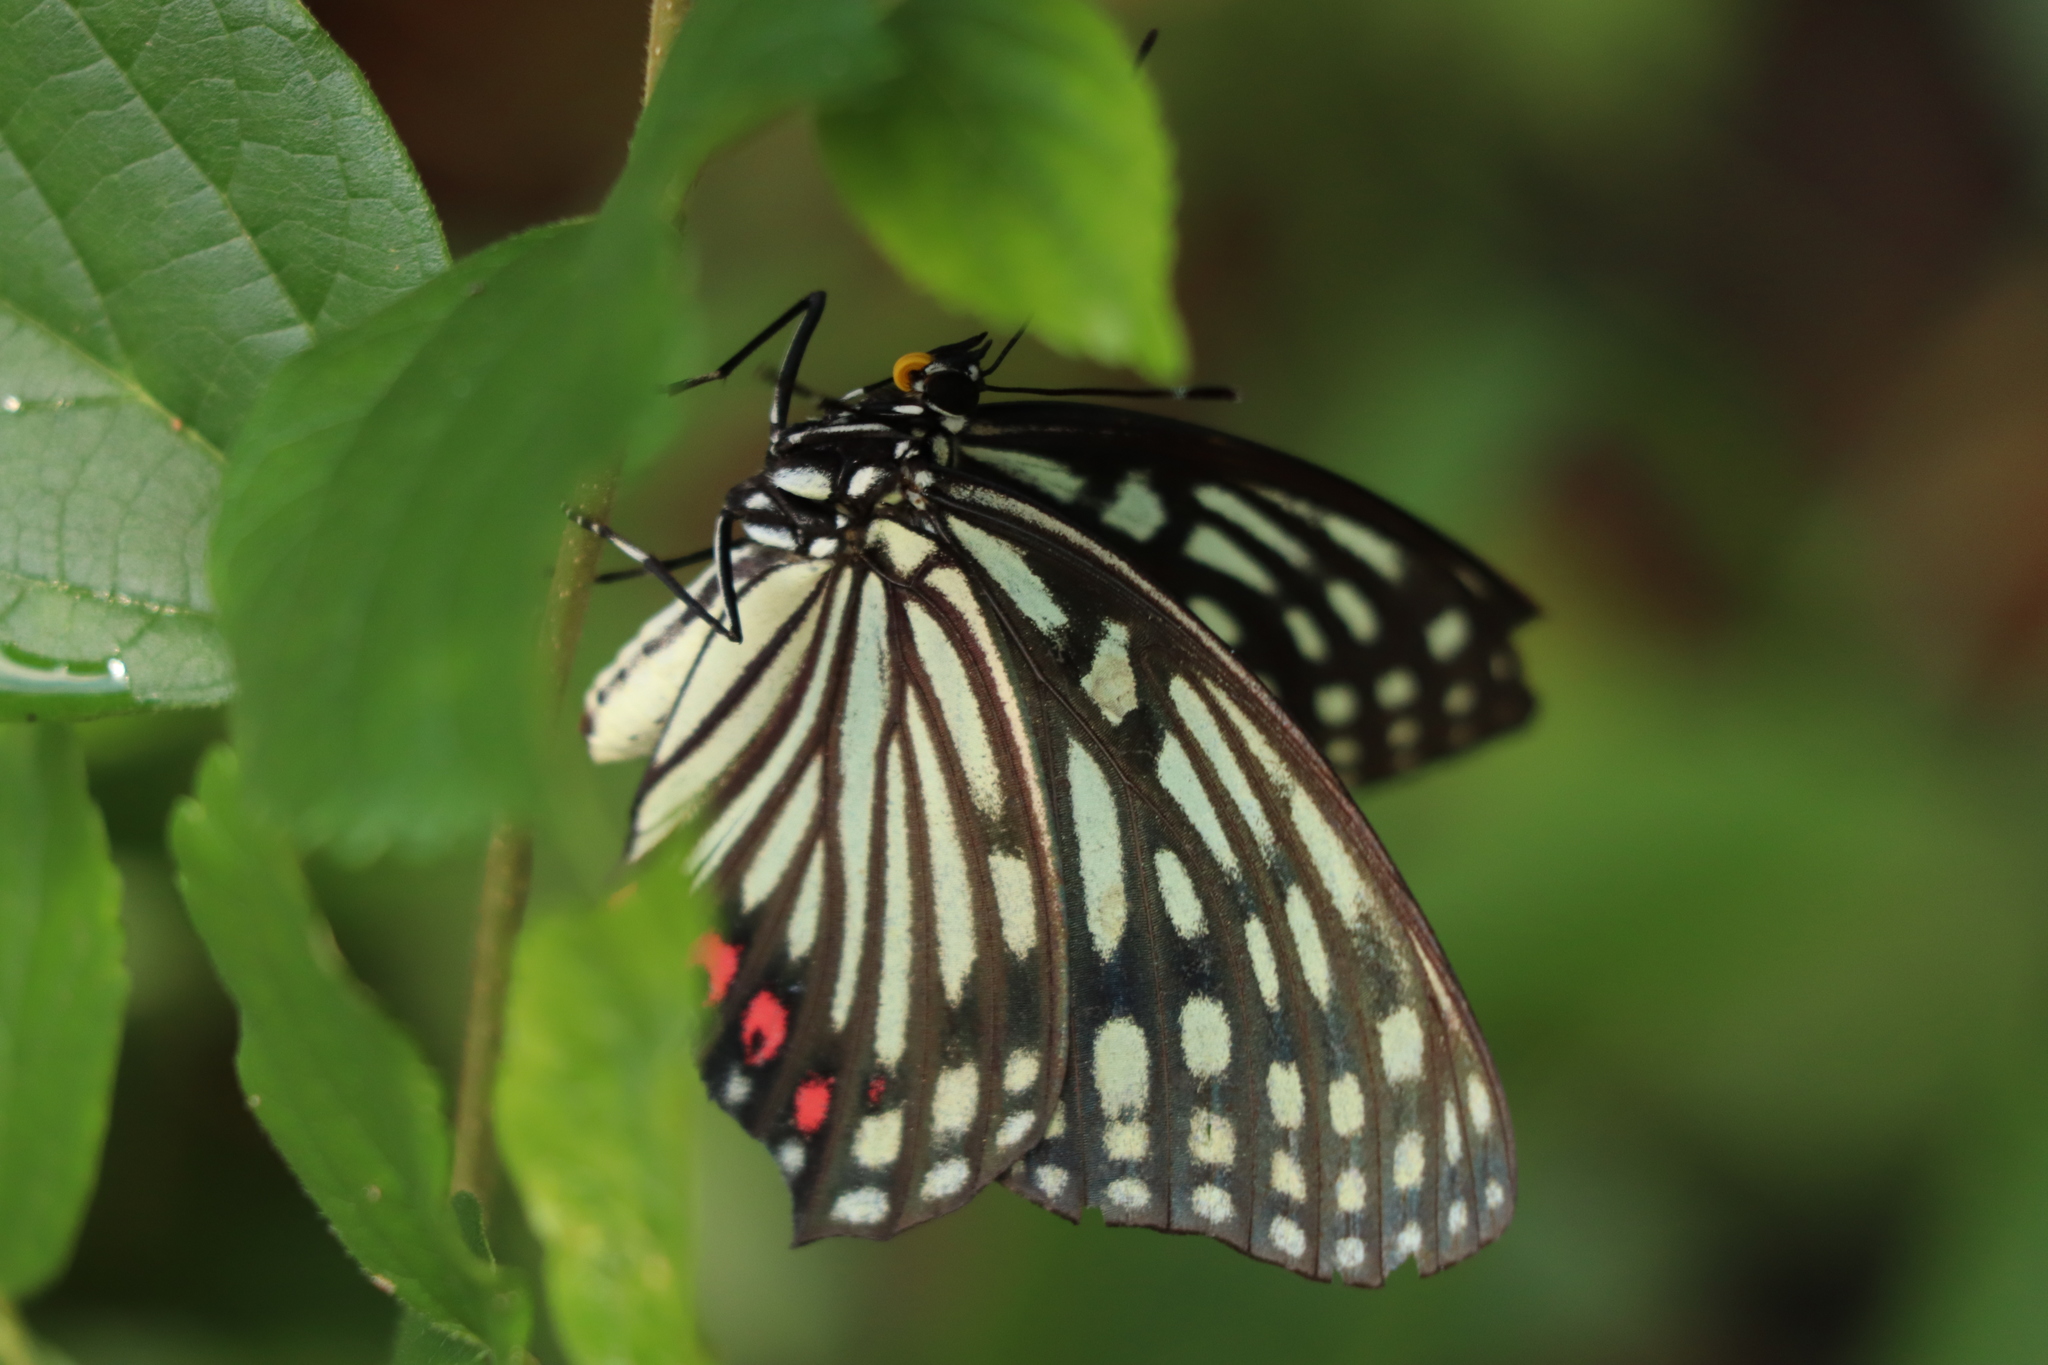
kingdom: Animalia
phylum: Arthropoda
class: Insecta
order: Lepidoptera
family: Nymphalidae
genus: Hestina
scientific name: Hestina assimilis
